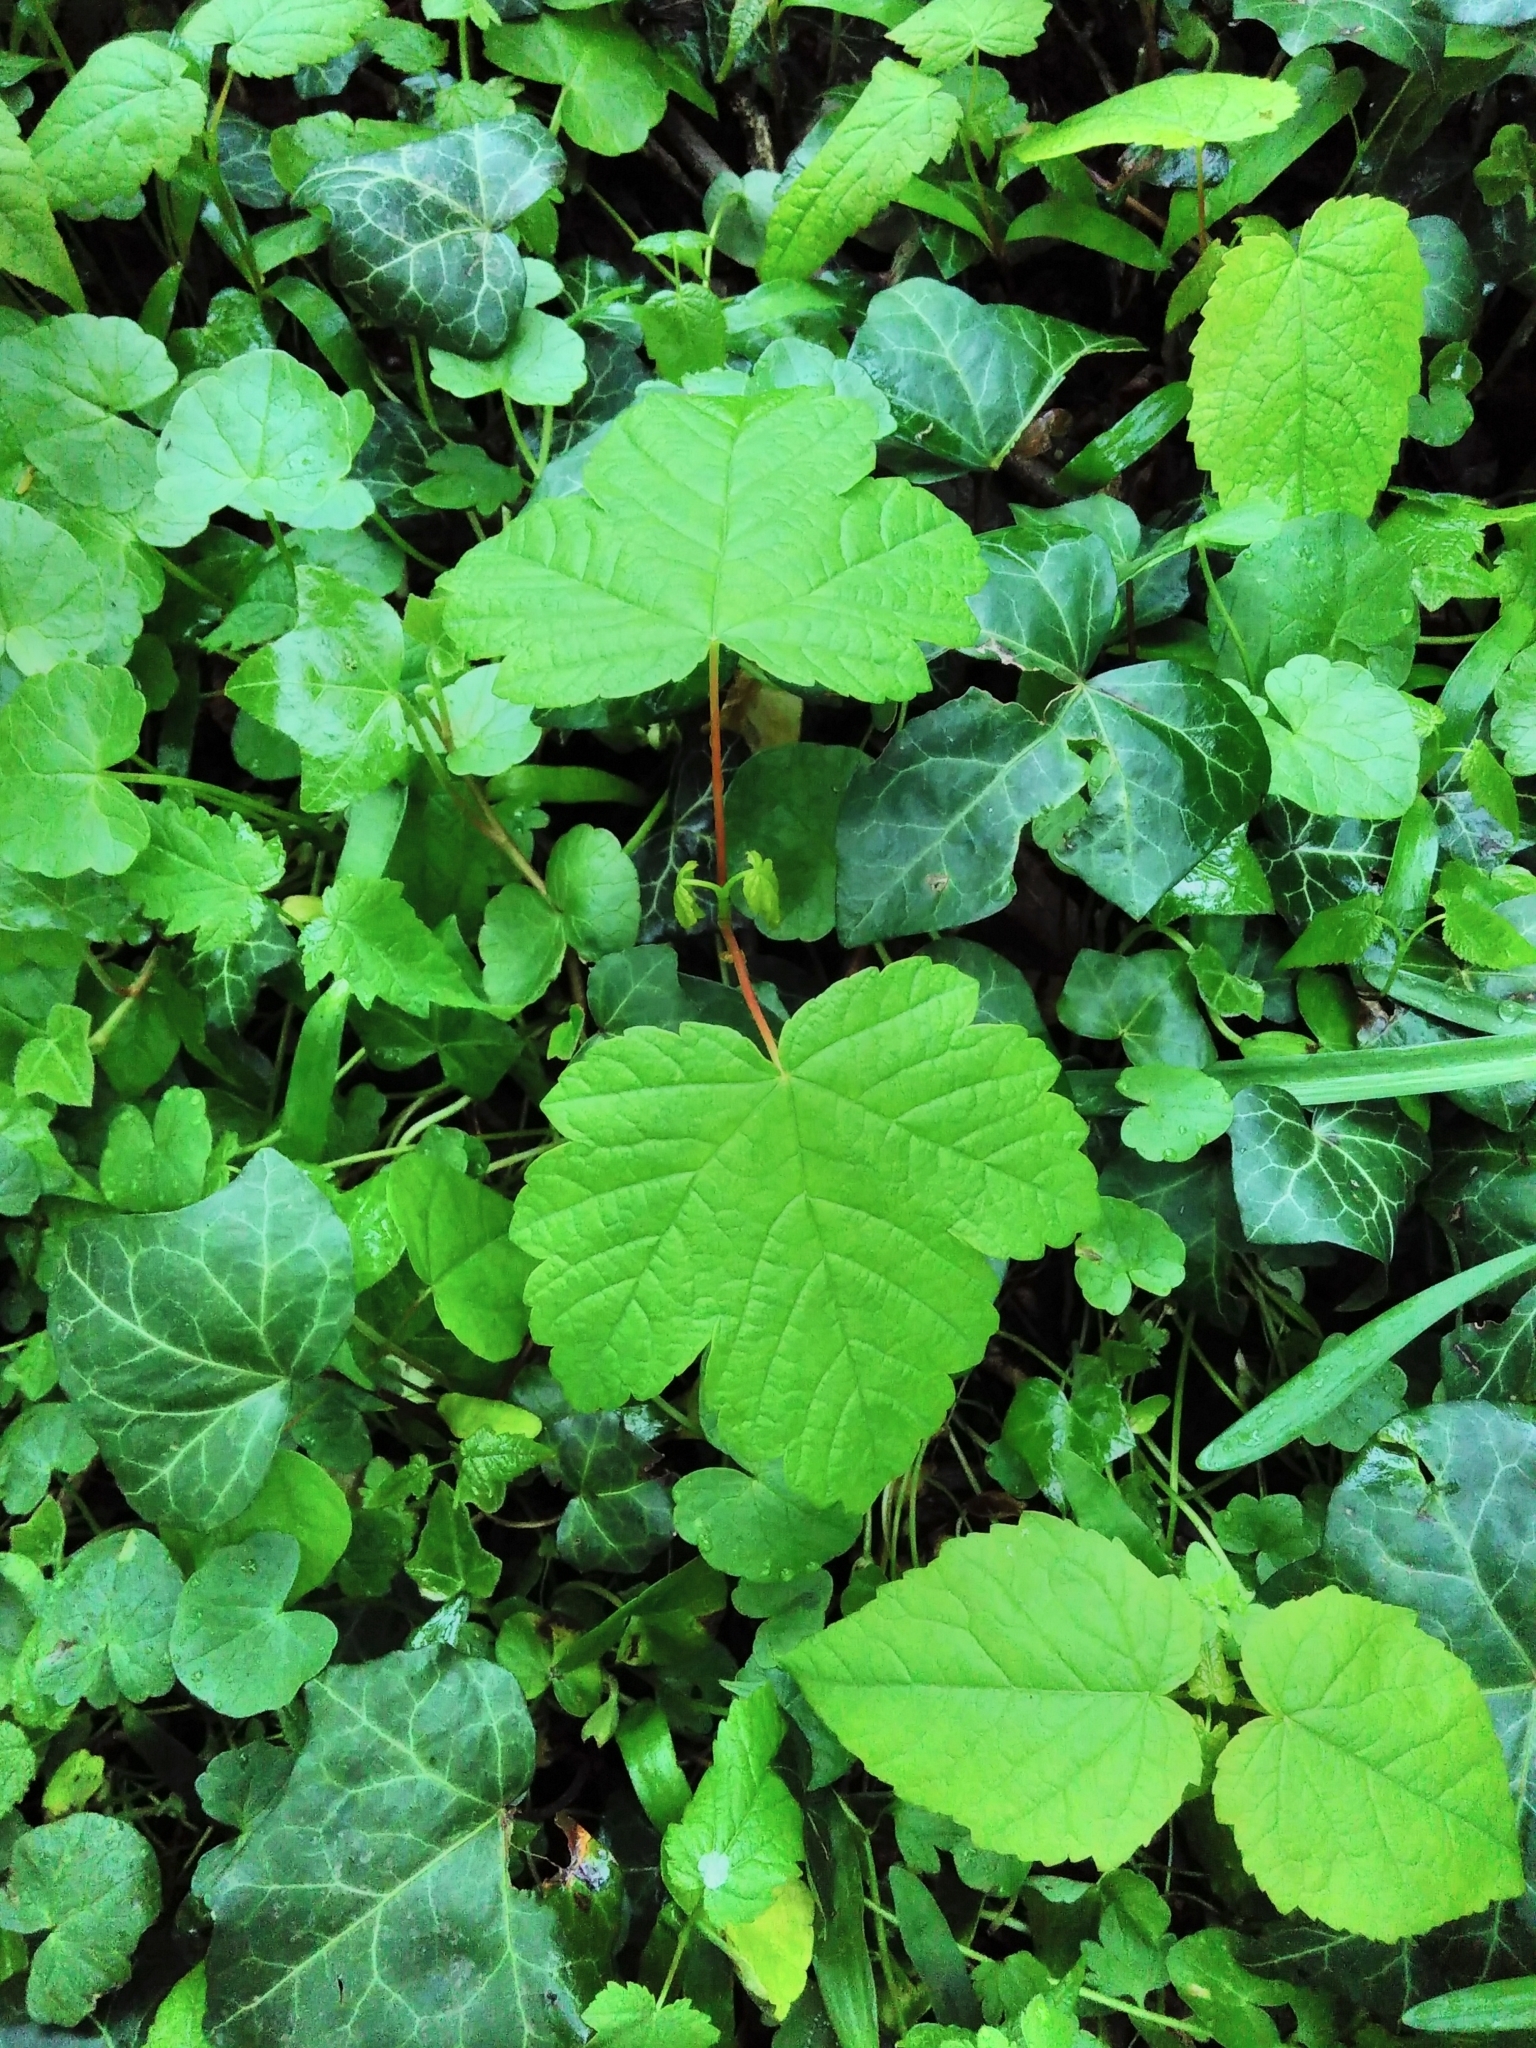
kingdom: Plantae
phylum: Tracheophyta
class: Magnoliopsida
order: Sapindales
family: Sapindaceae
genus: Acer
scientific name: Acer pseudoplatanus
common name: Sycamore
